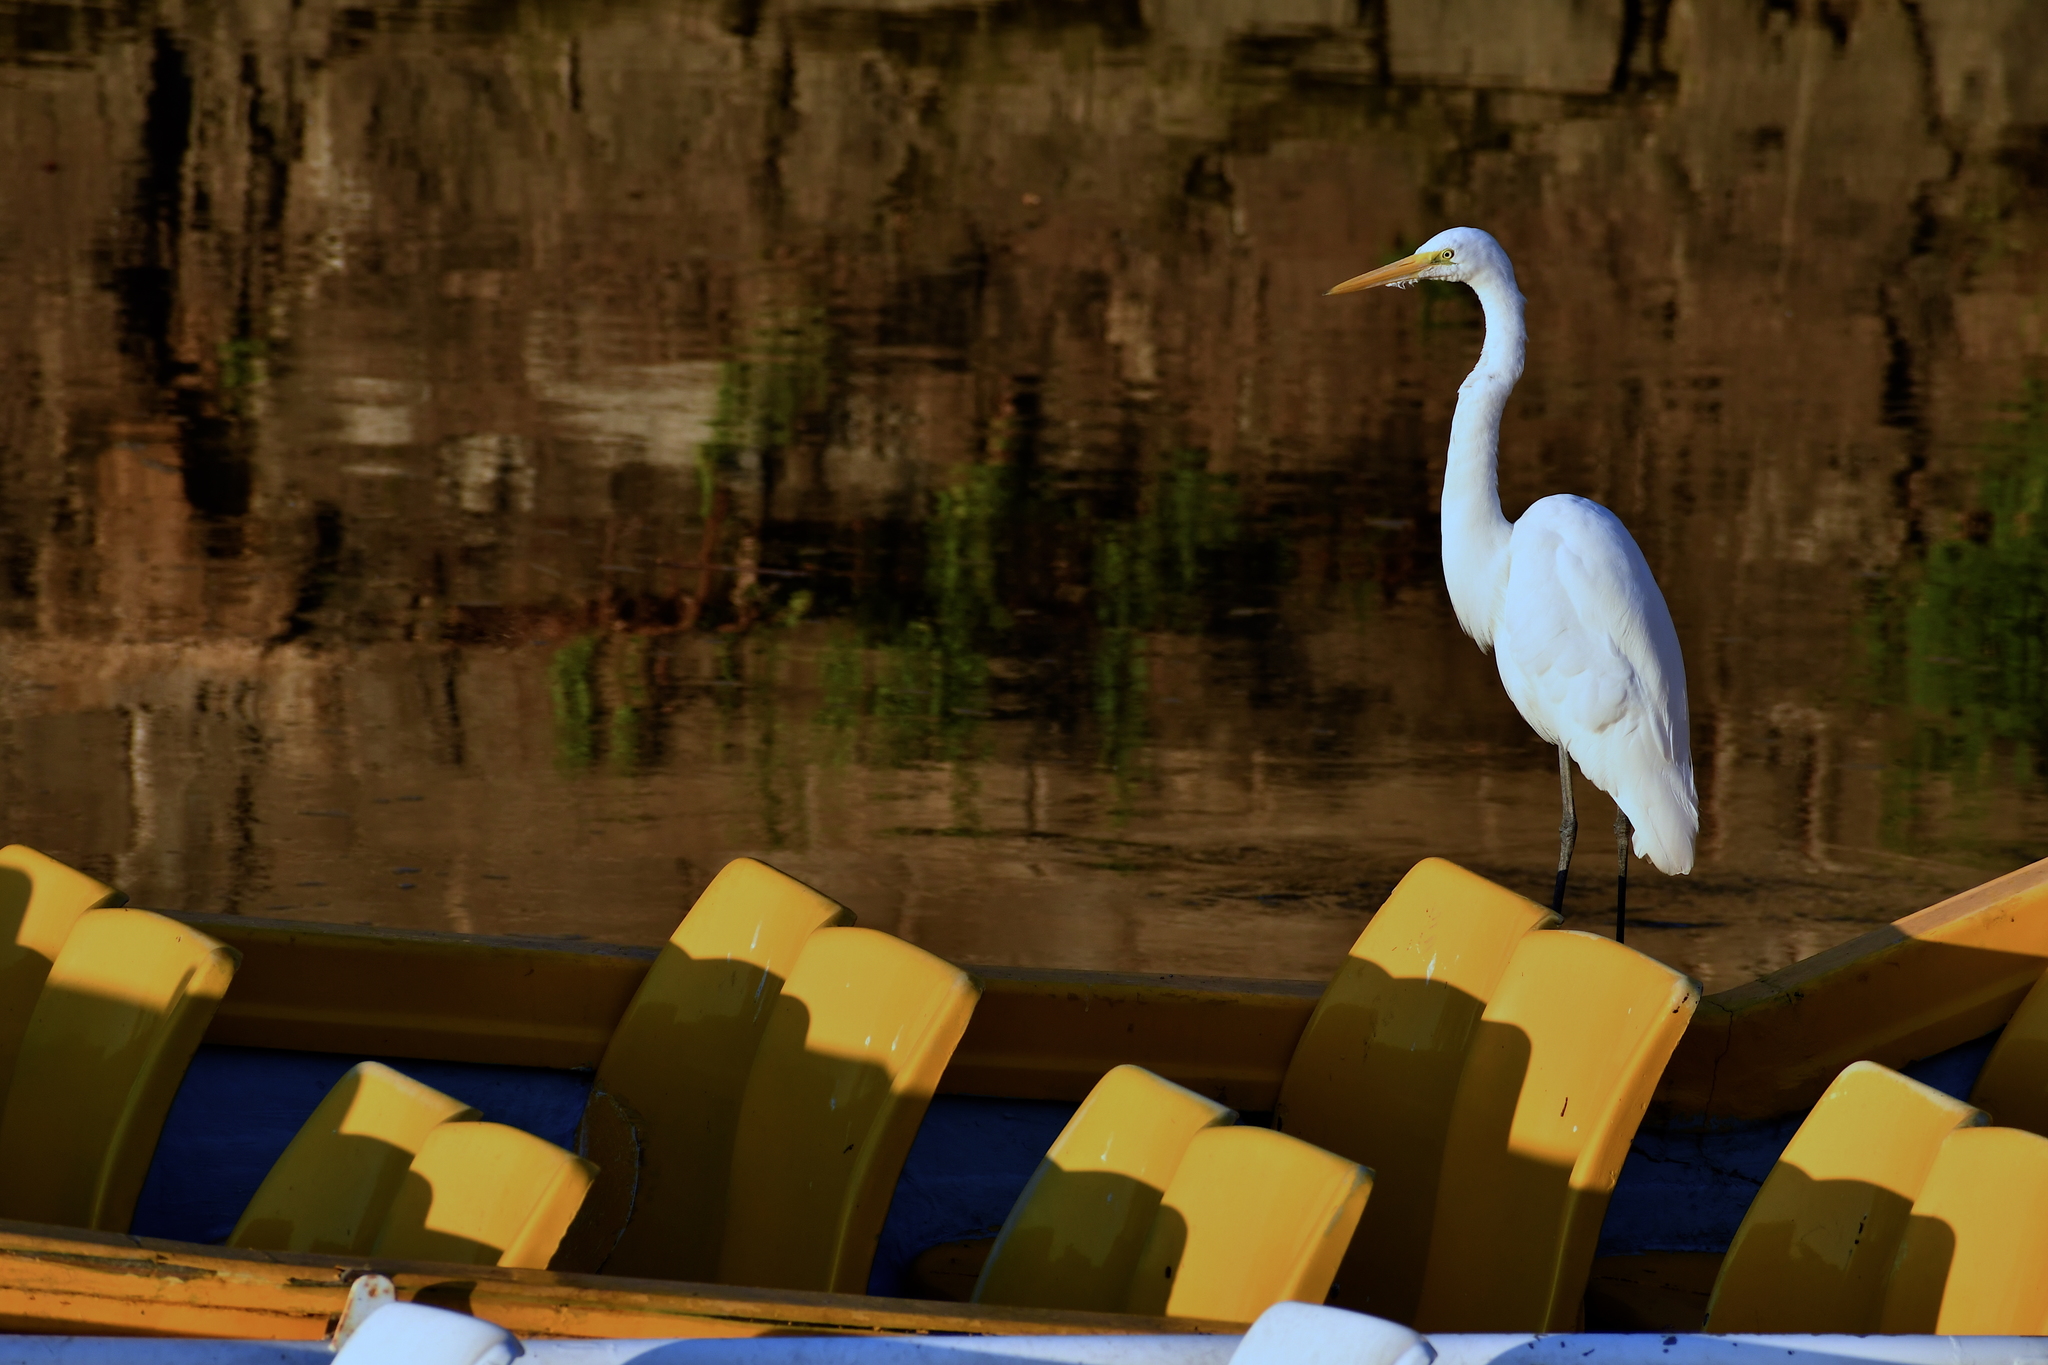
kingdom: Animalia
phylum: Chordata
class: Aves
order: Pelecaniformes
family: Ardeidae
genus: Ardea
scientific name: Ardea alba
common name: Great egret
